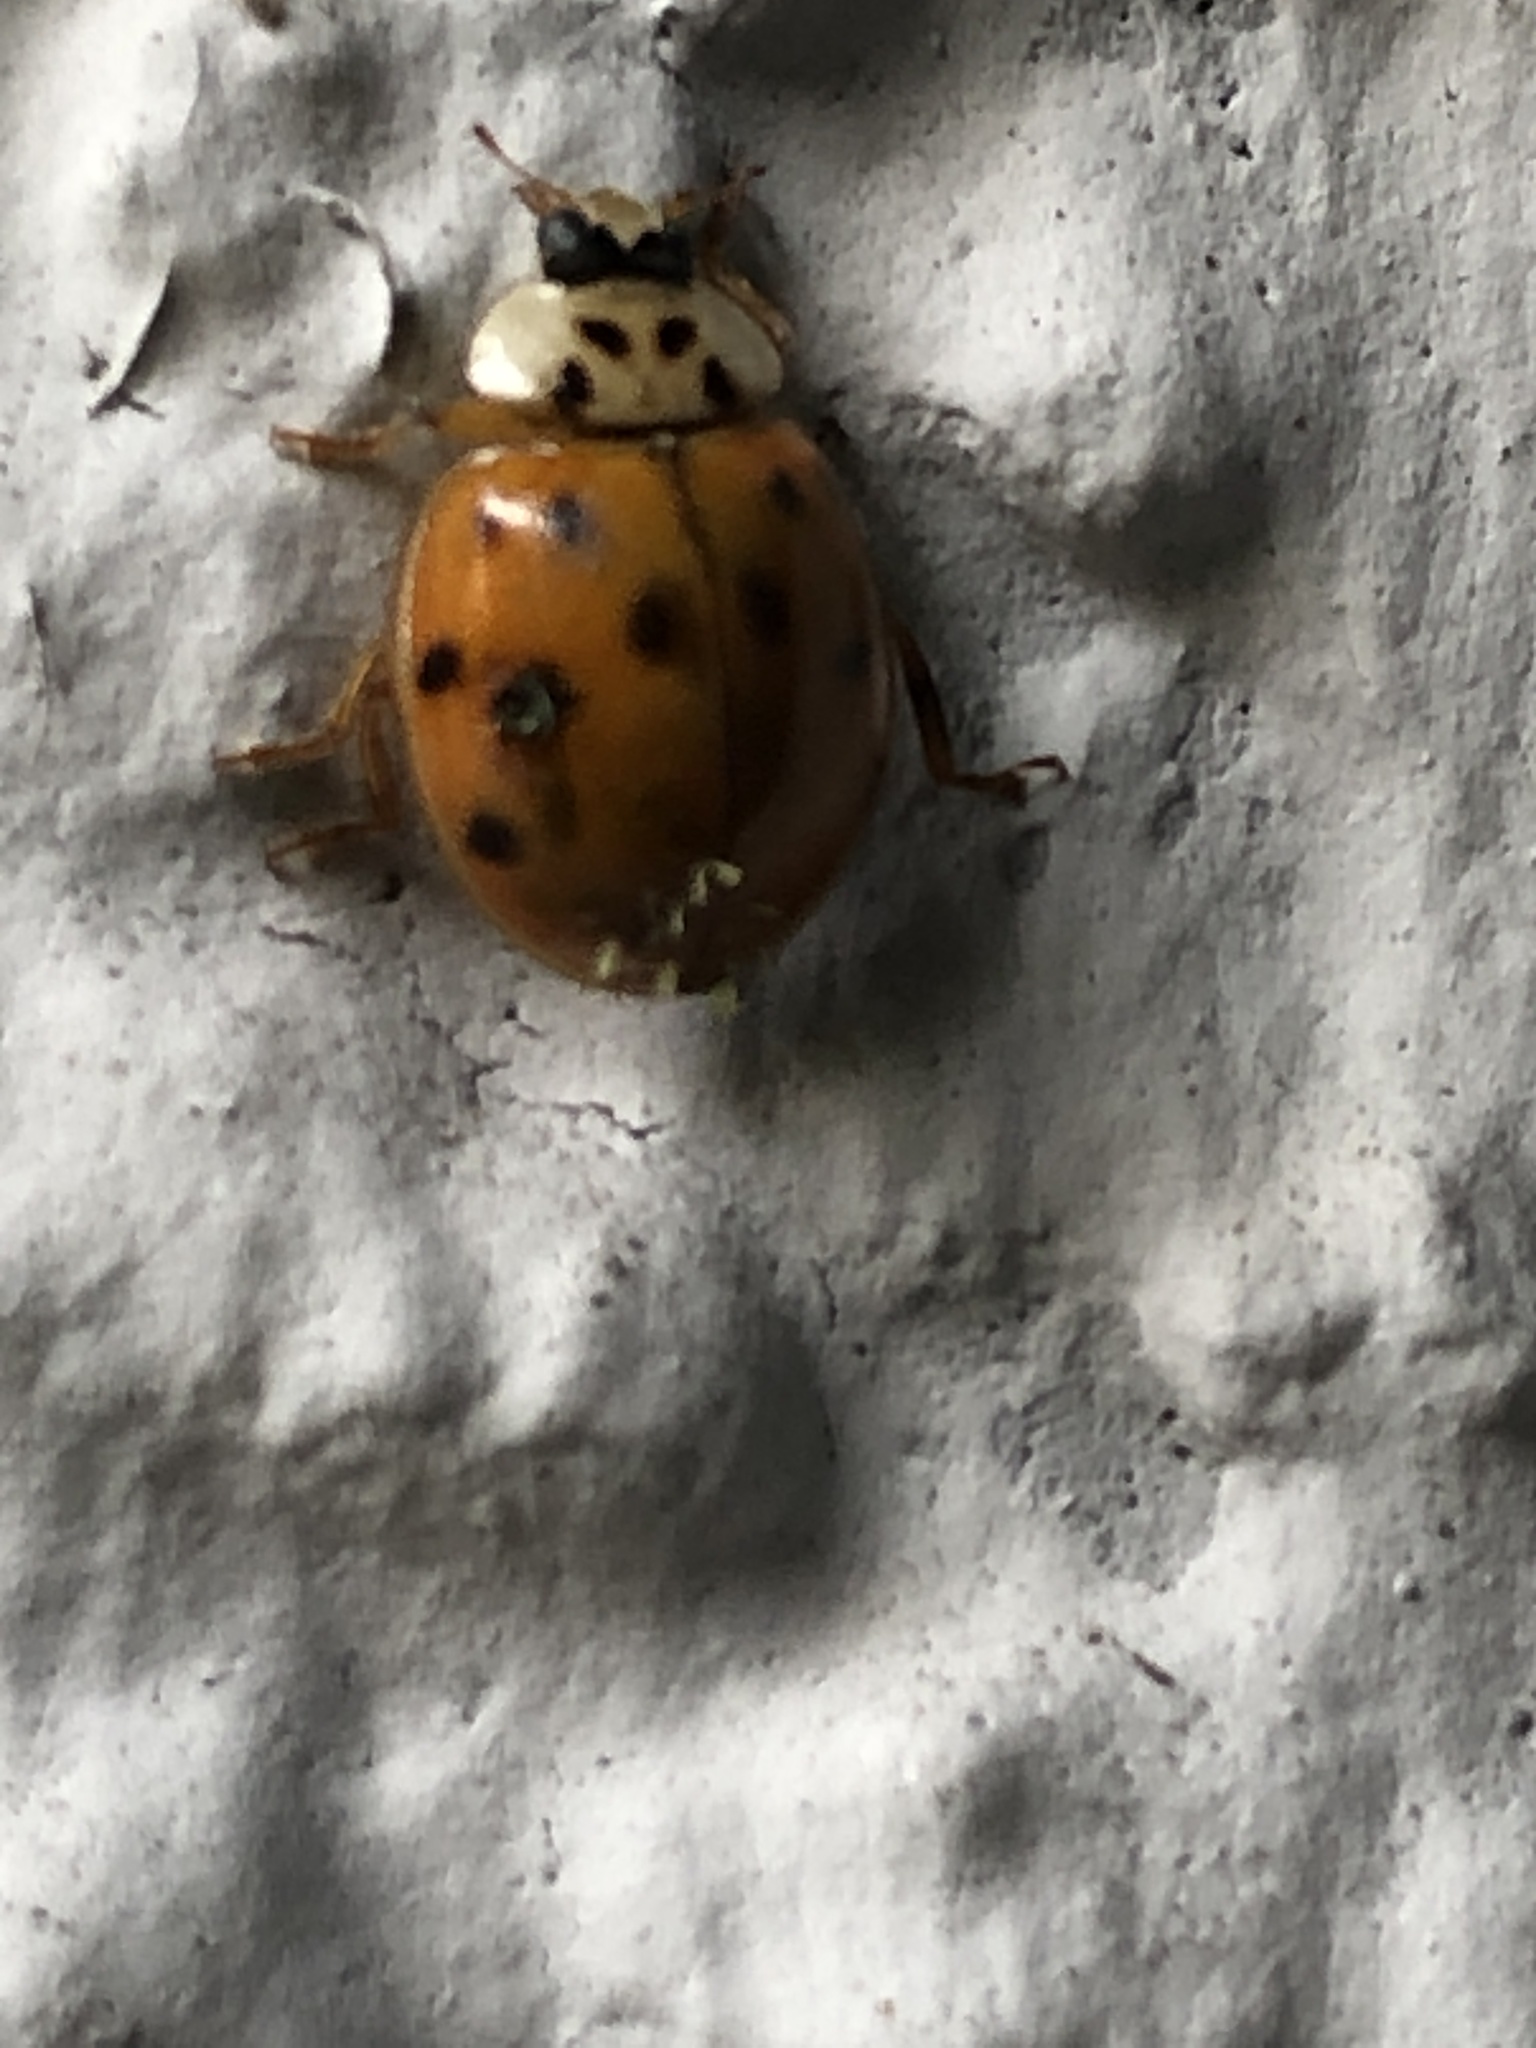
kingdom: Fungi
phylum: Ascomycota
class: Laboulbeniomycetes
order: Laboulbeniales
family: Laboulbeniaceae
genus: Hesperomyces
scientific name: Hesperomyces harmoniae
